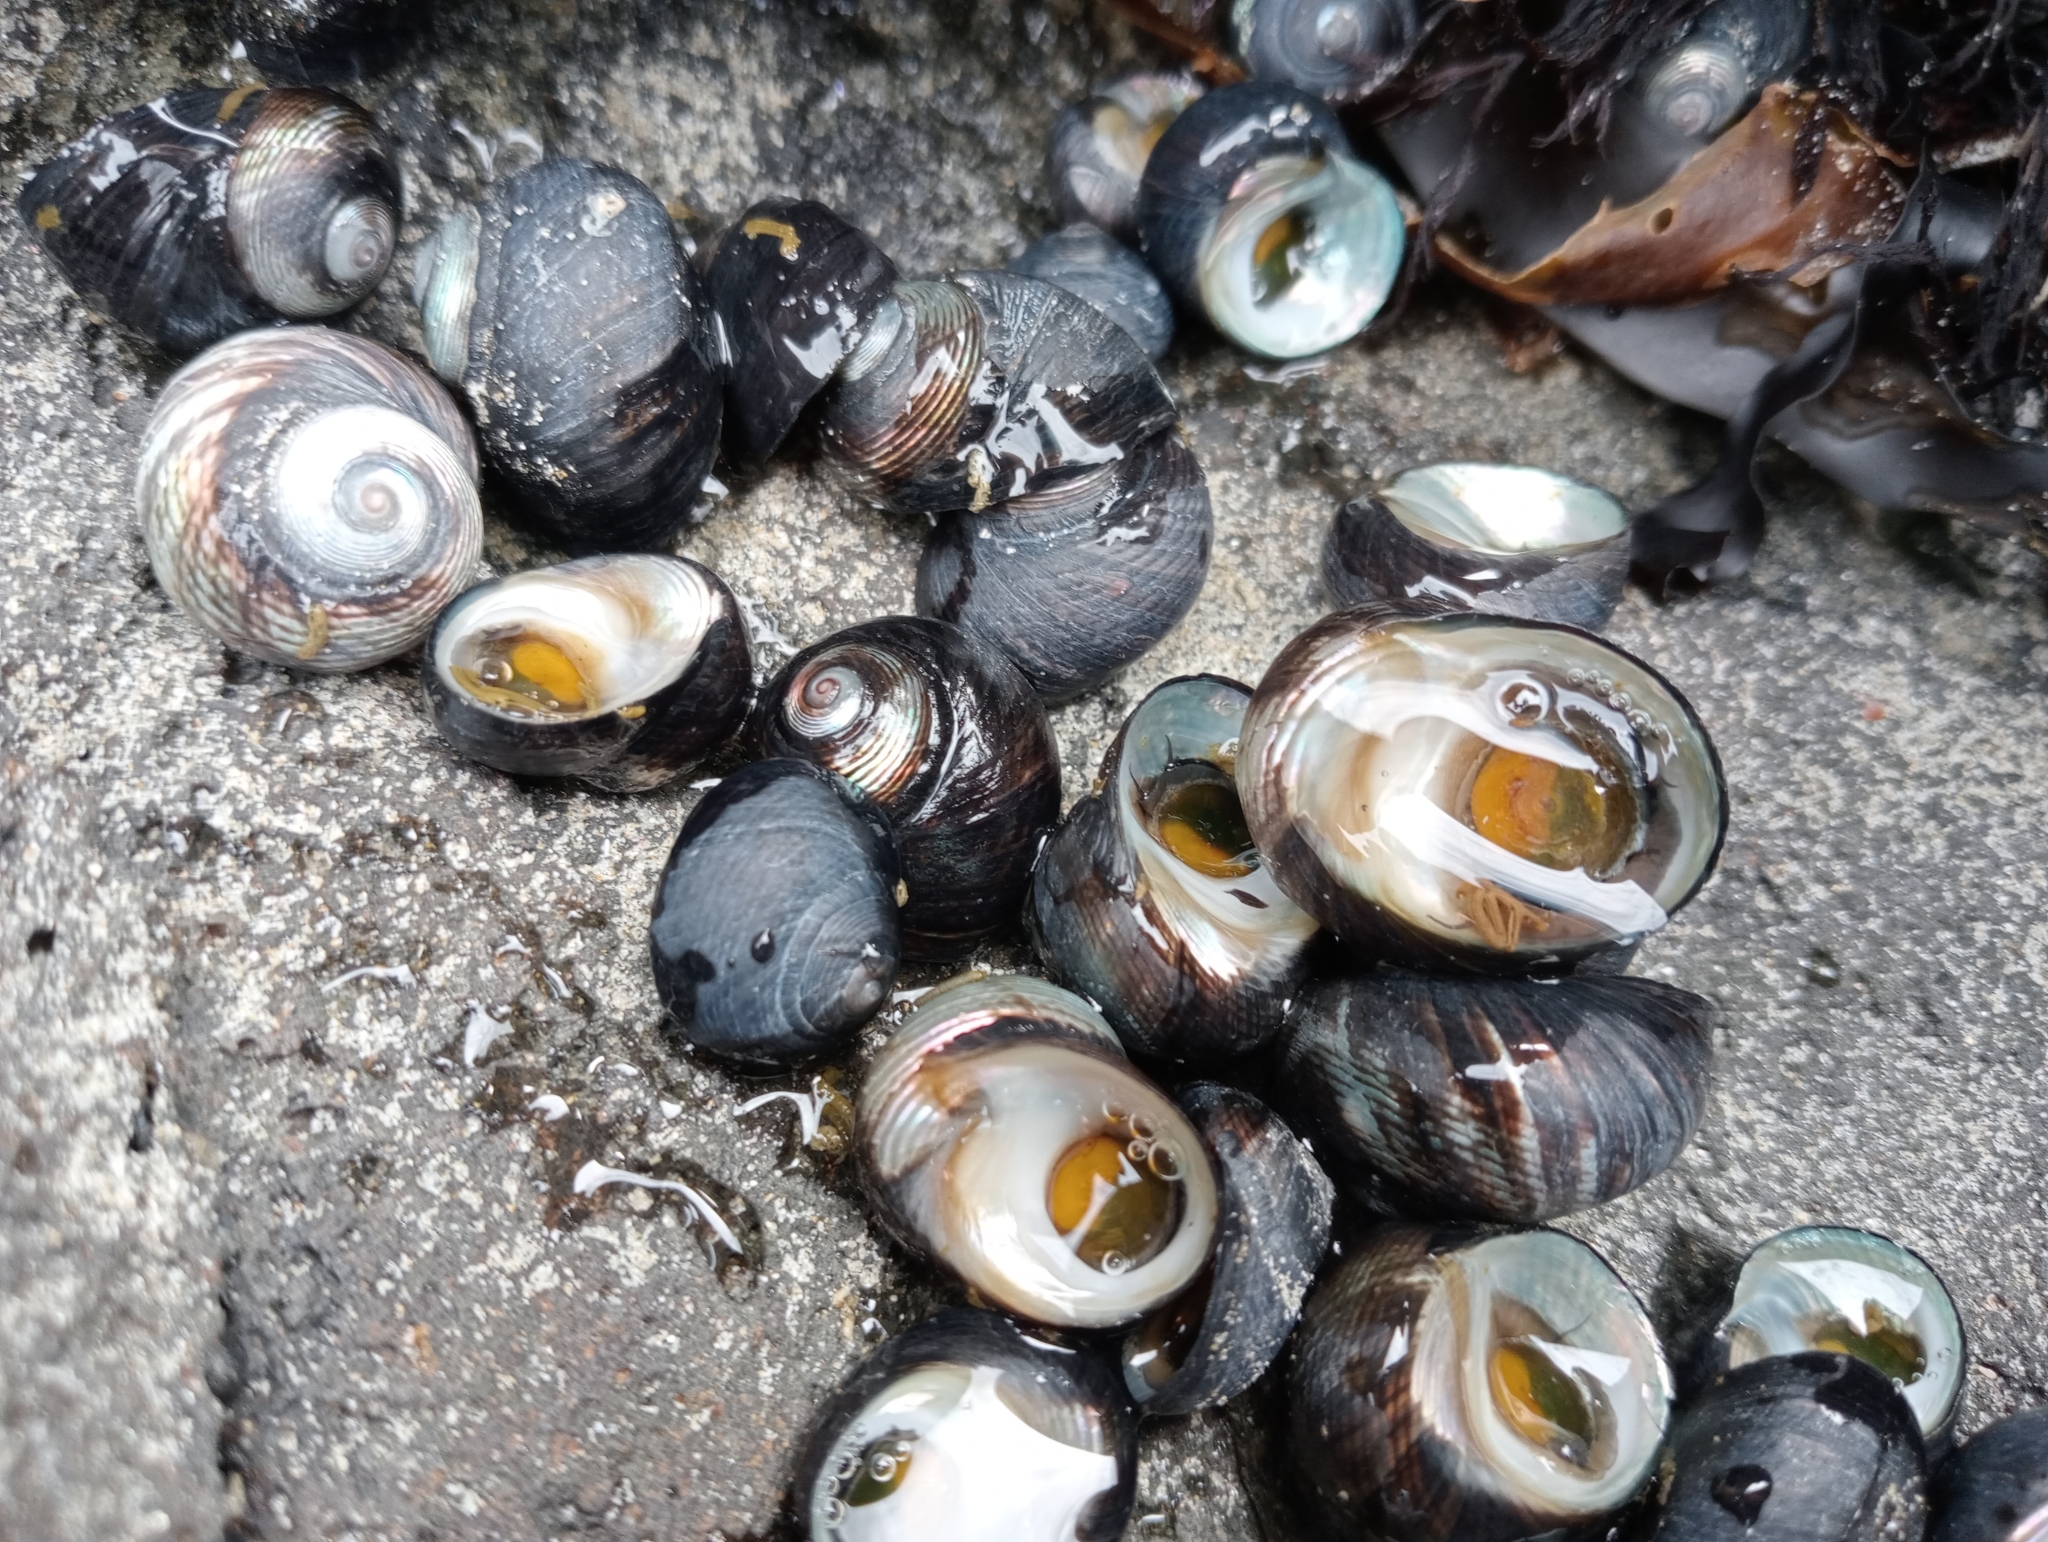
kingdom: Animalia
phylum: Mollusca
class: Gastropoda
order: Trochida
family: Trochidae
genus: Diloma
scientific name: Diloma nigerrimum
